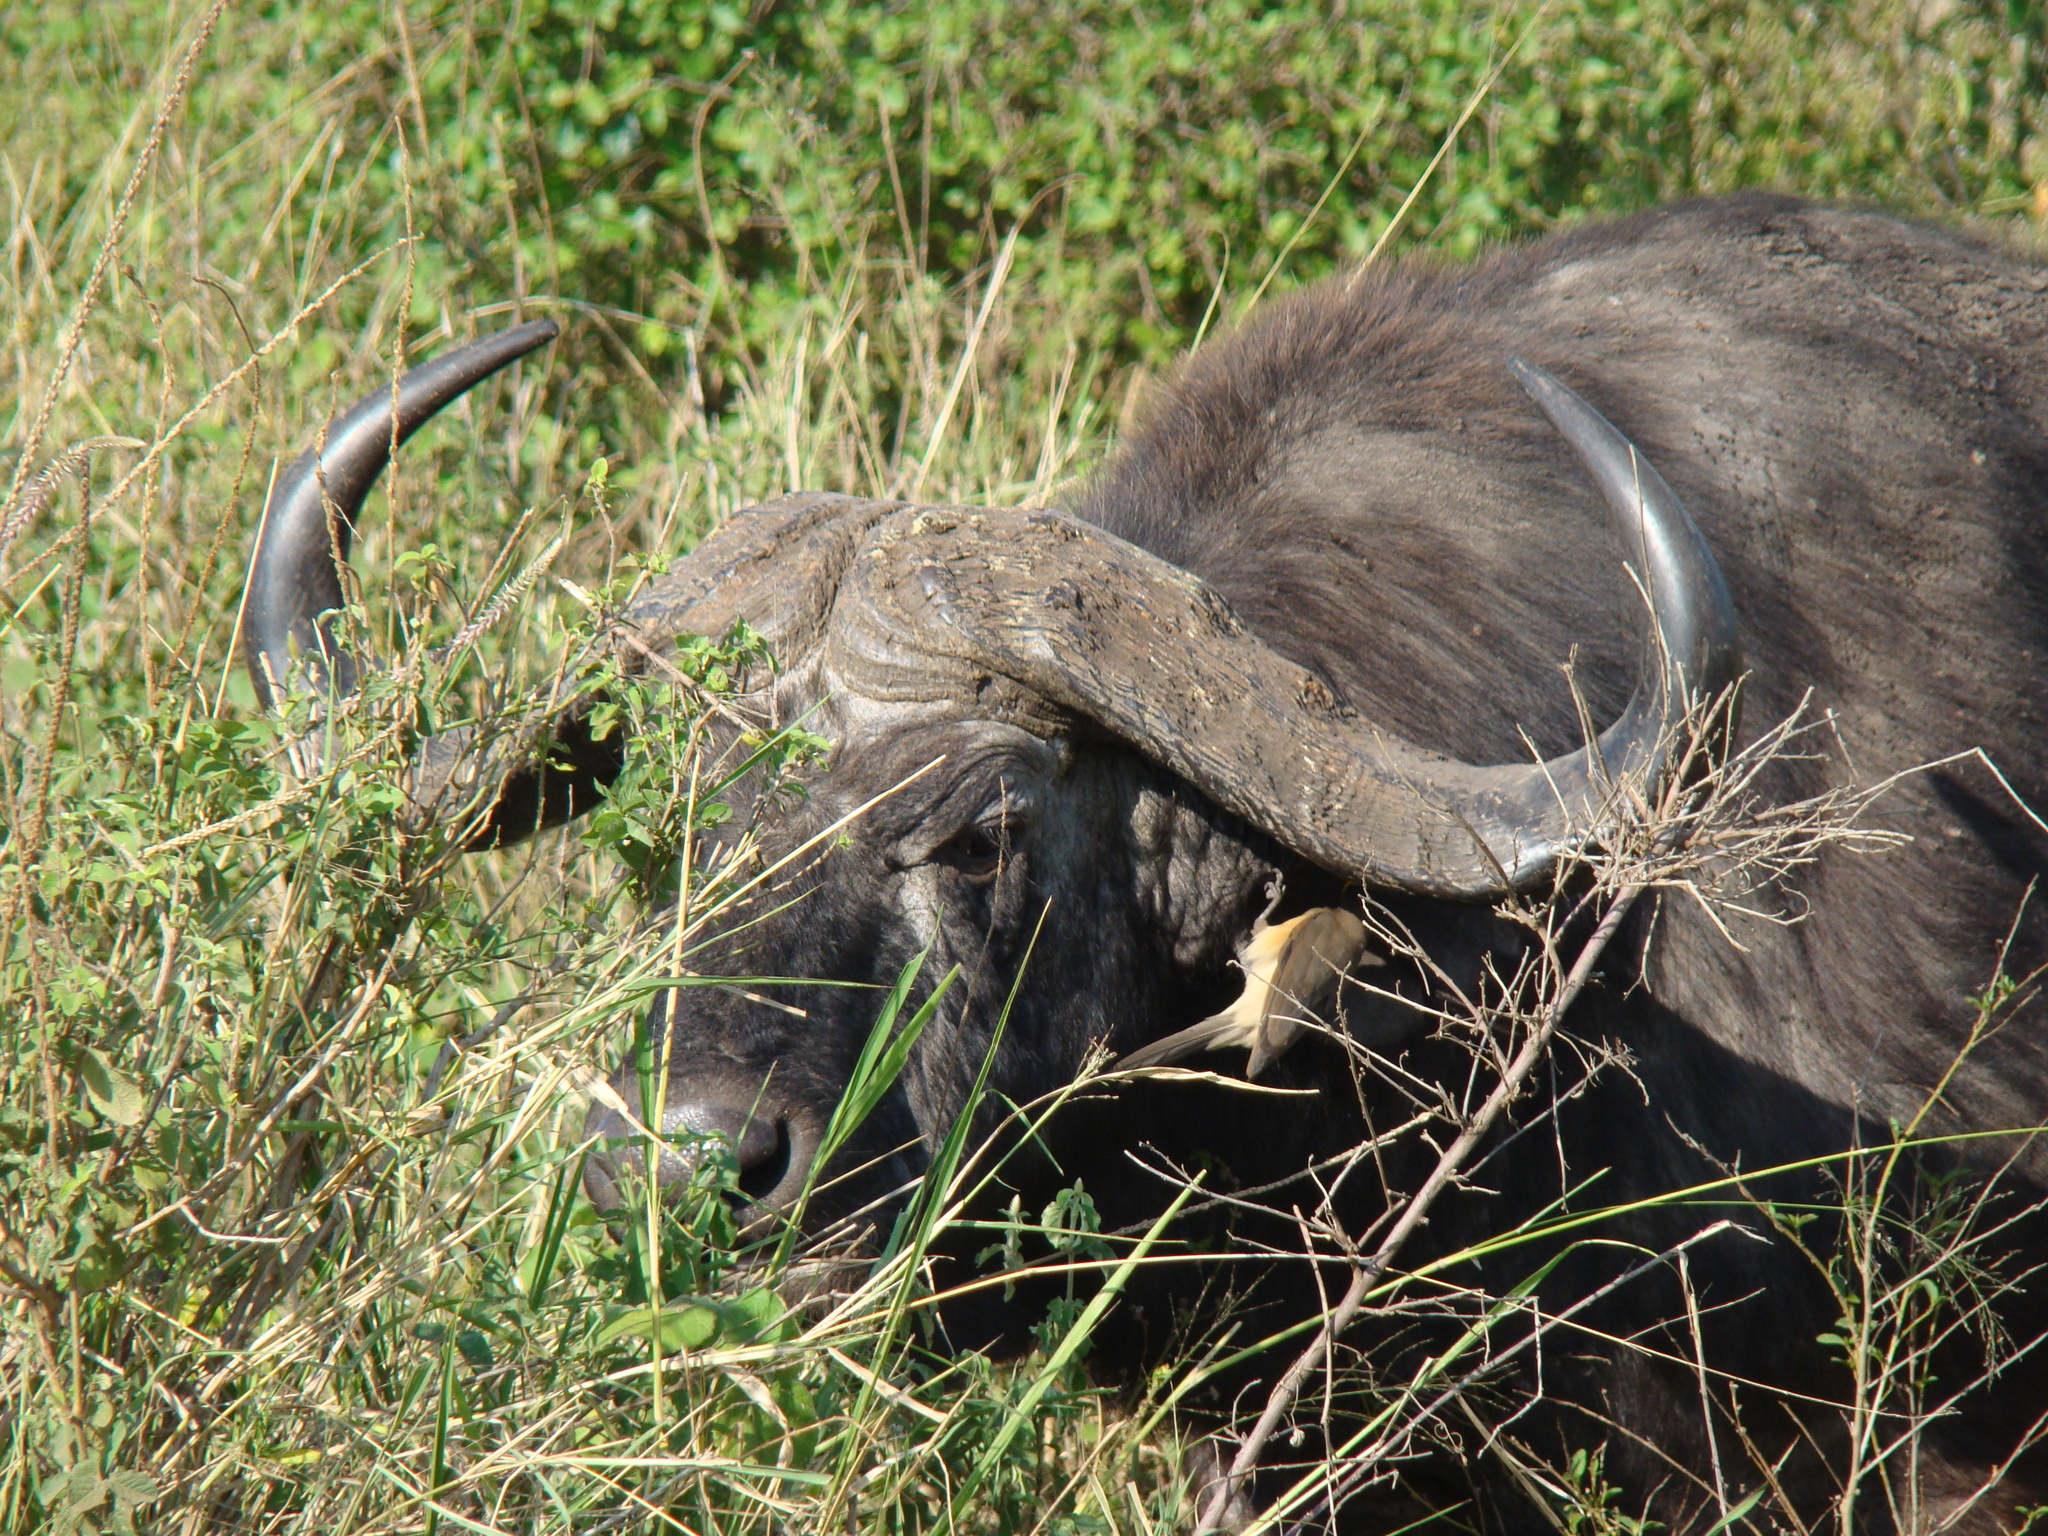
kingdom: Animalia
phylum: Chordata
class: Mammalia
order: Artiodactyla
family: Bovidae
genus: Syncerus
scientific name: Syncerus caffer
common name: African buffalo
